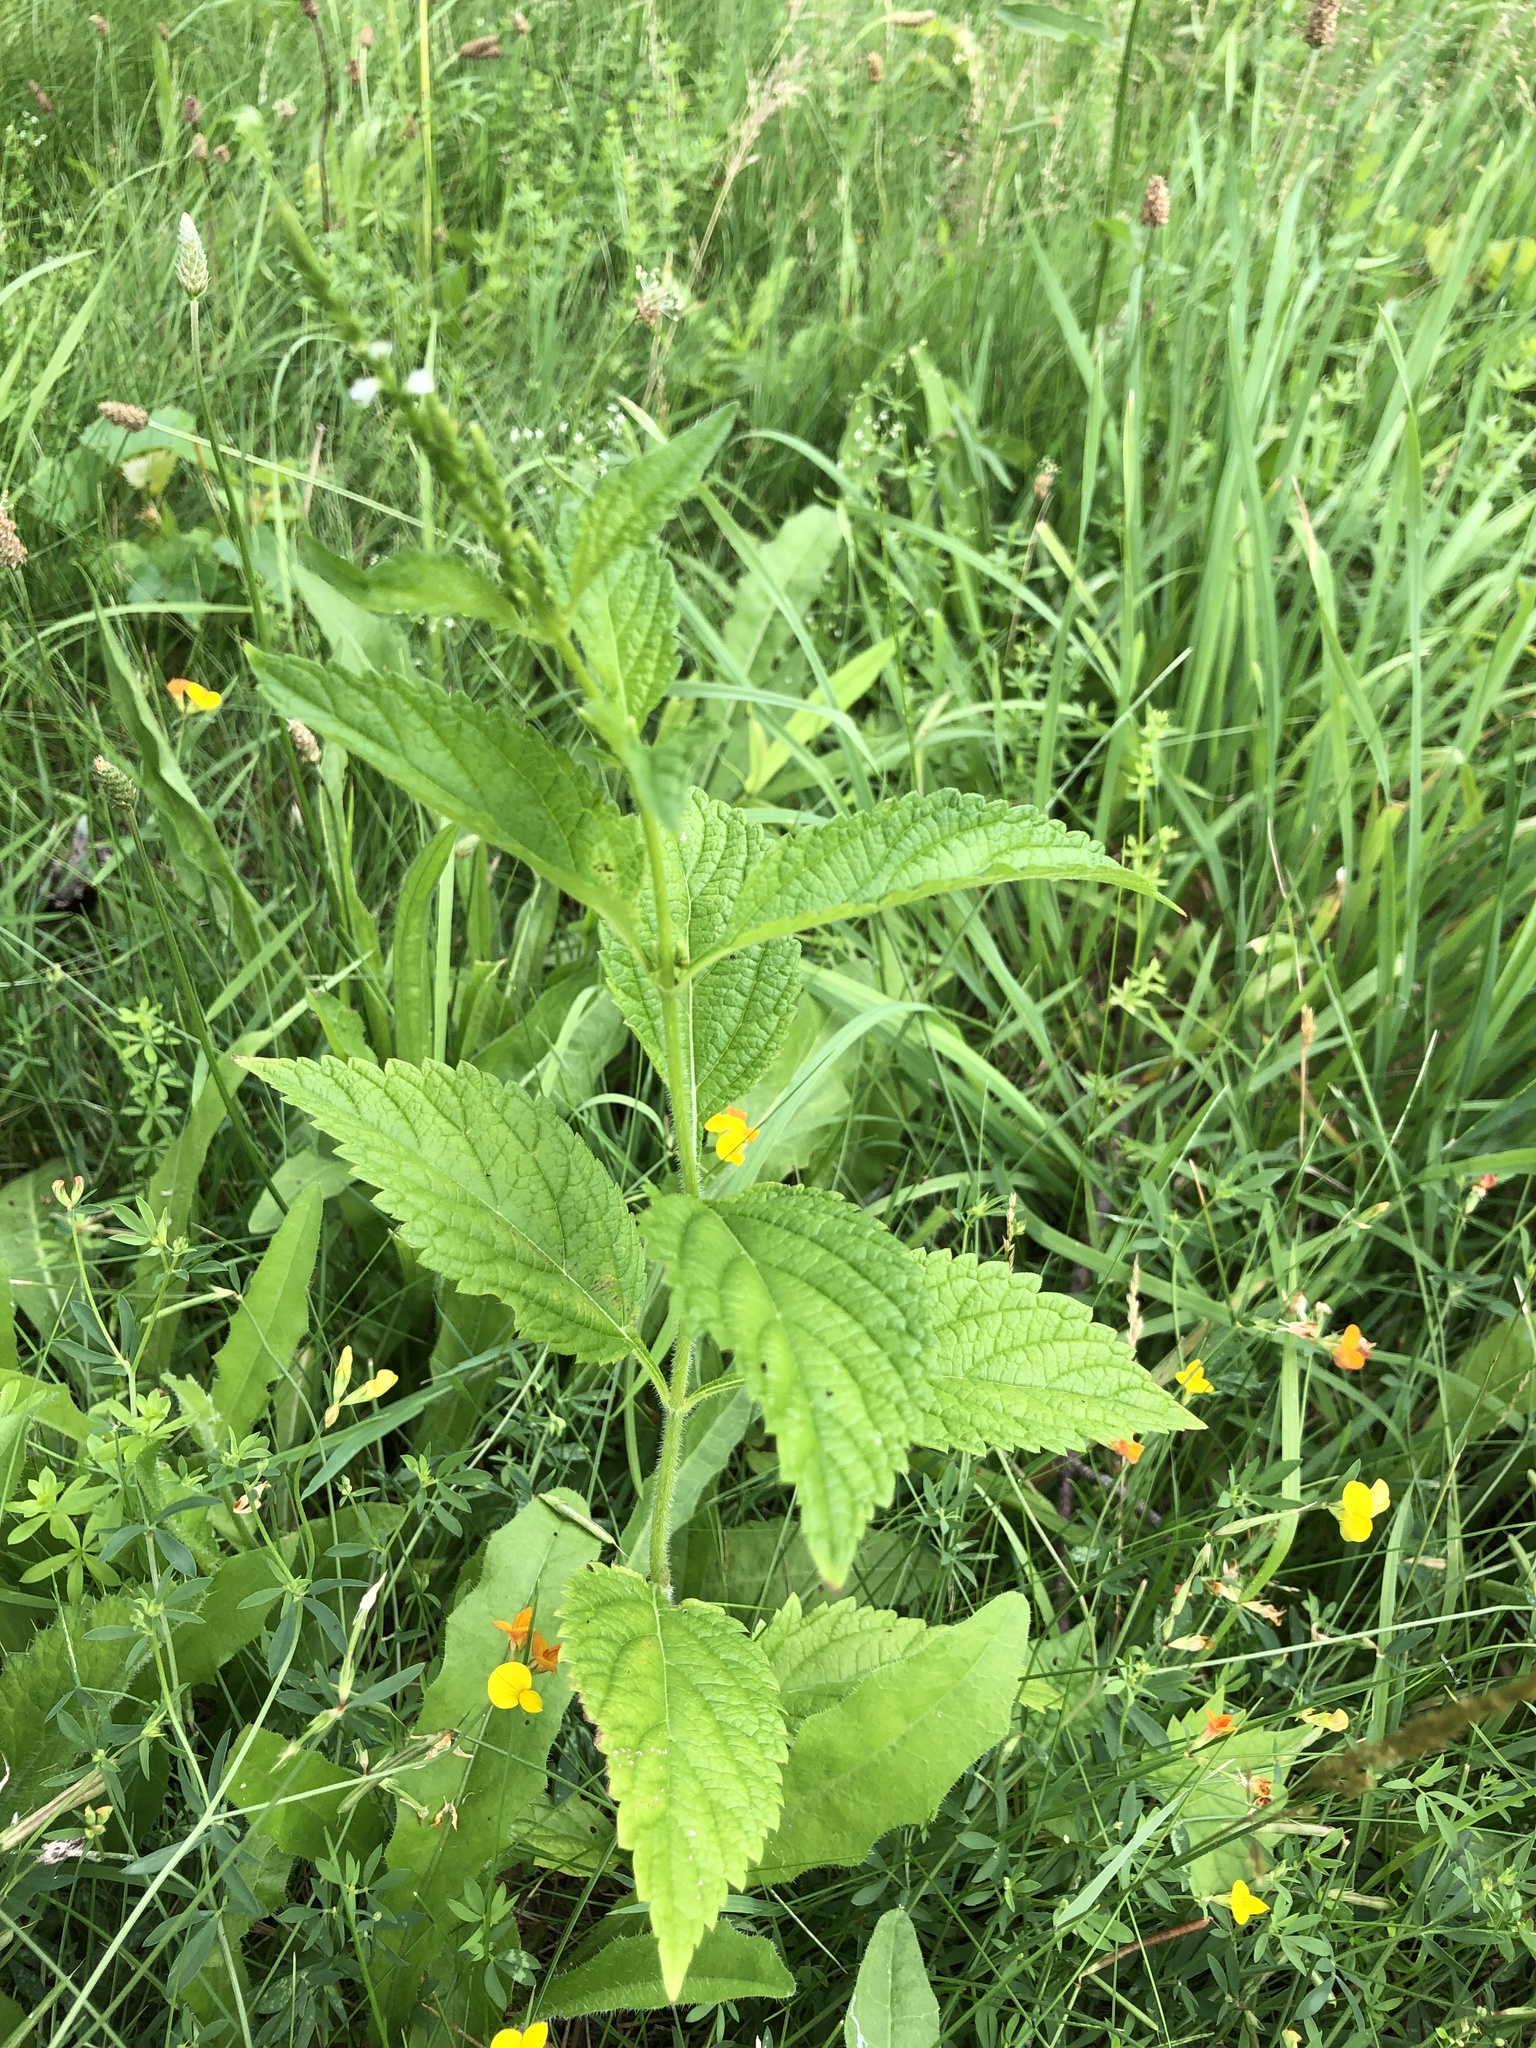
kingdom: Plantae
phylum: Tracheophyta
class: Magnoliopsida
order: Lamiales
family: Verbenaceae
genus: Verbena
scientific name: Verbena urticifolia
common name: Nettle-leaved vervain
